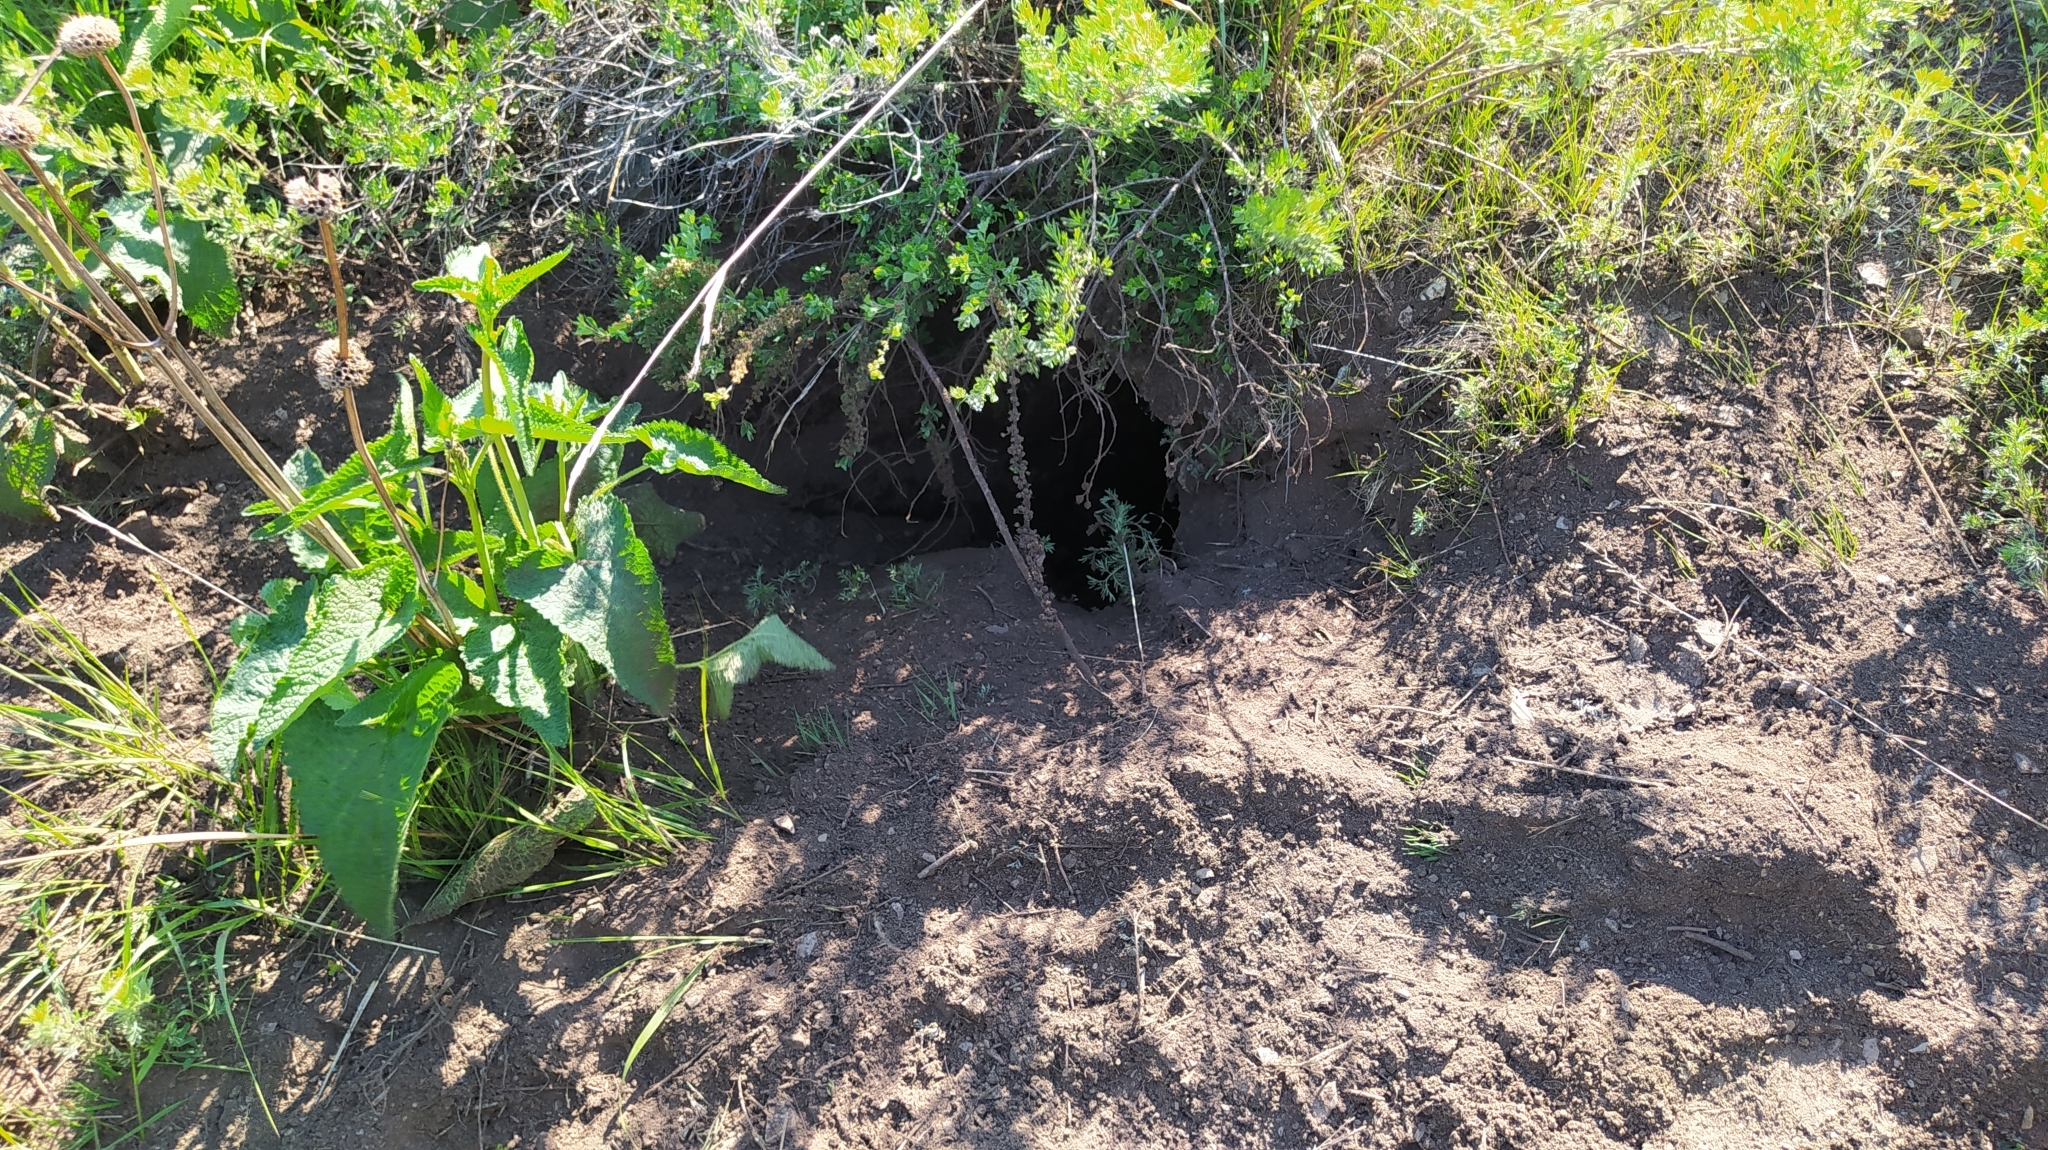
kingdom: Animalia
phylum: Chordata
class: Mammalia
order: Carnivora
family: Mustelidae
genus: Meles
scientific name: Meles leucurus
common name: Asian badger
